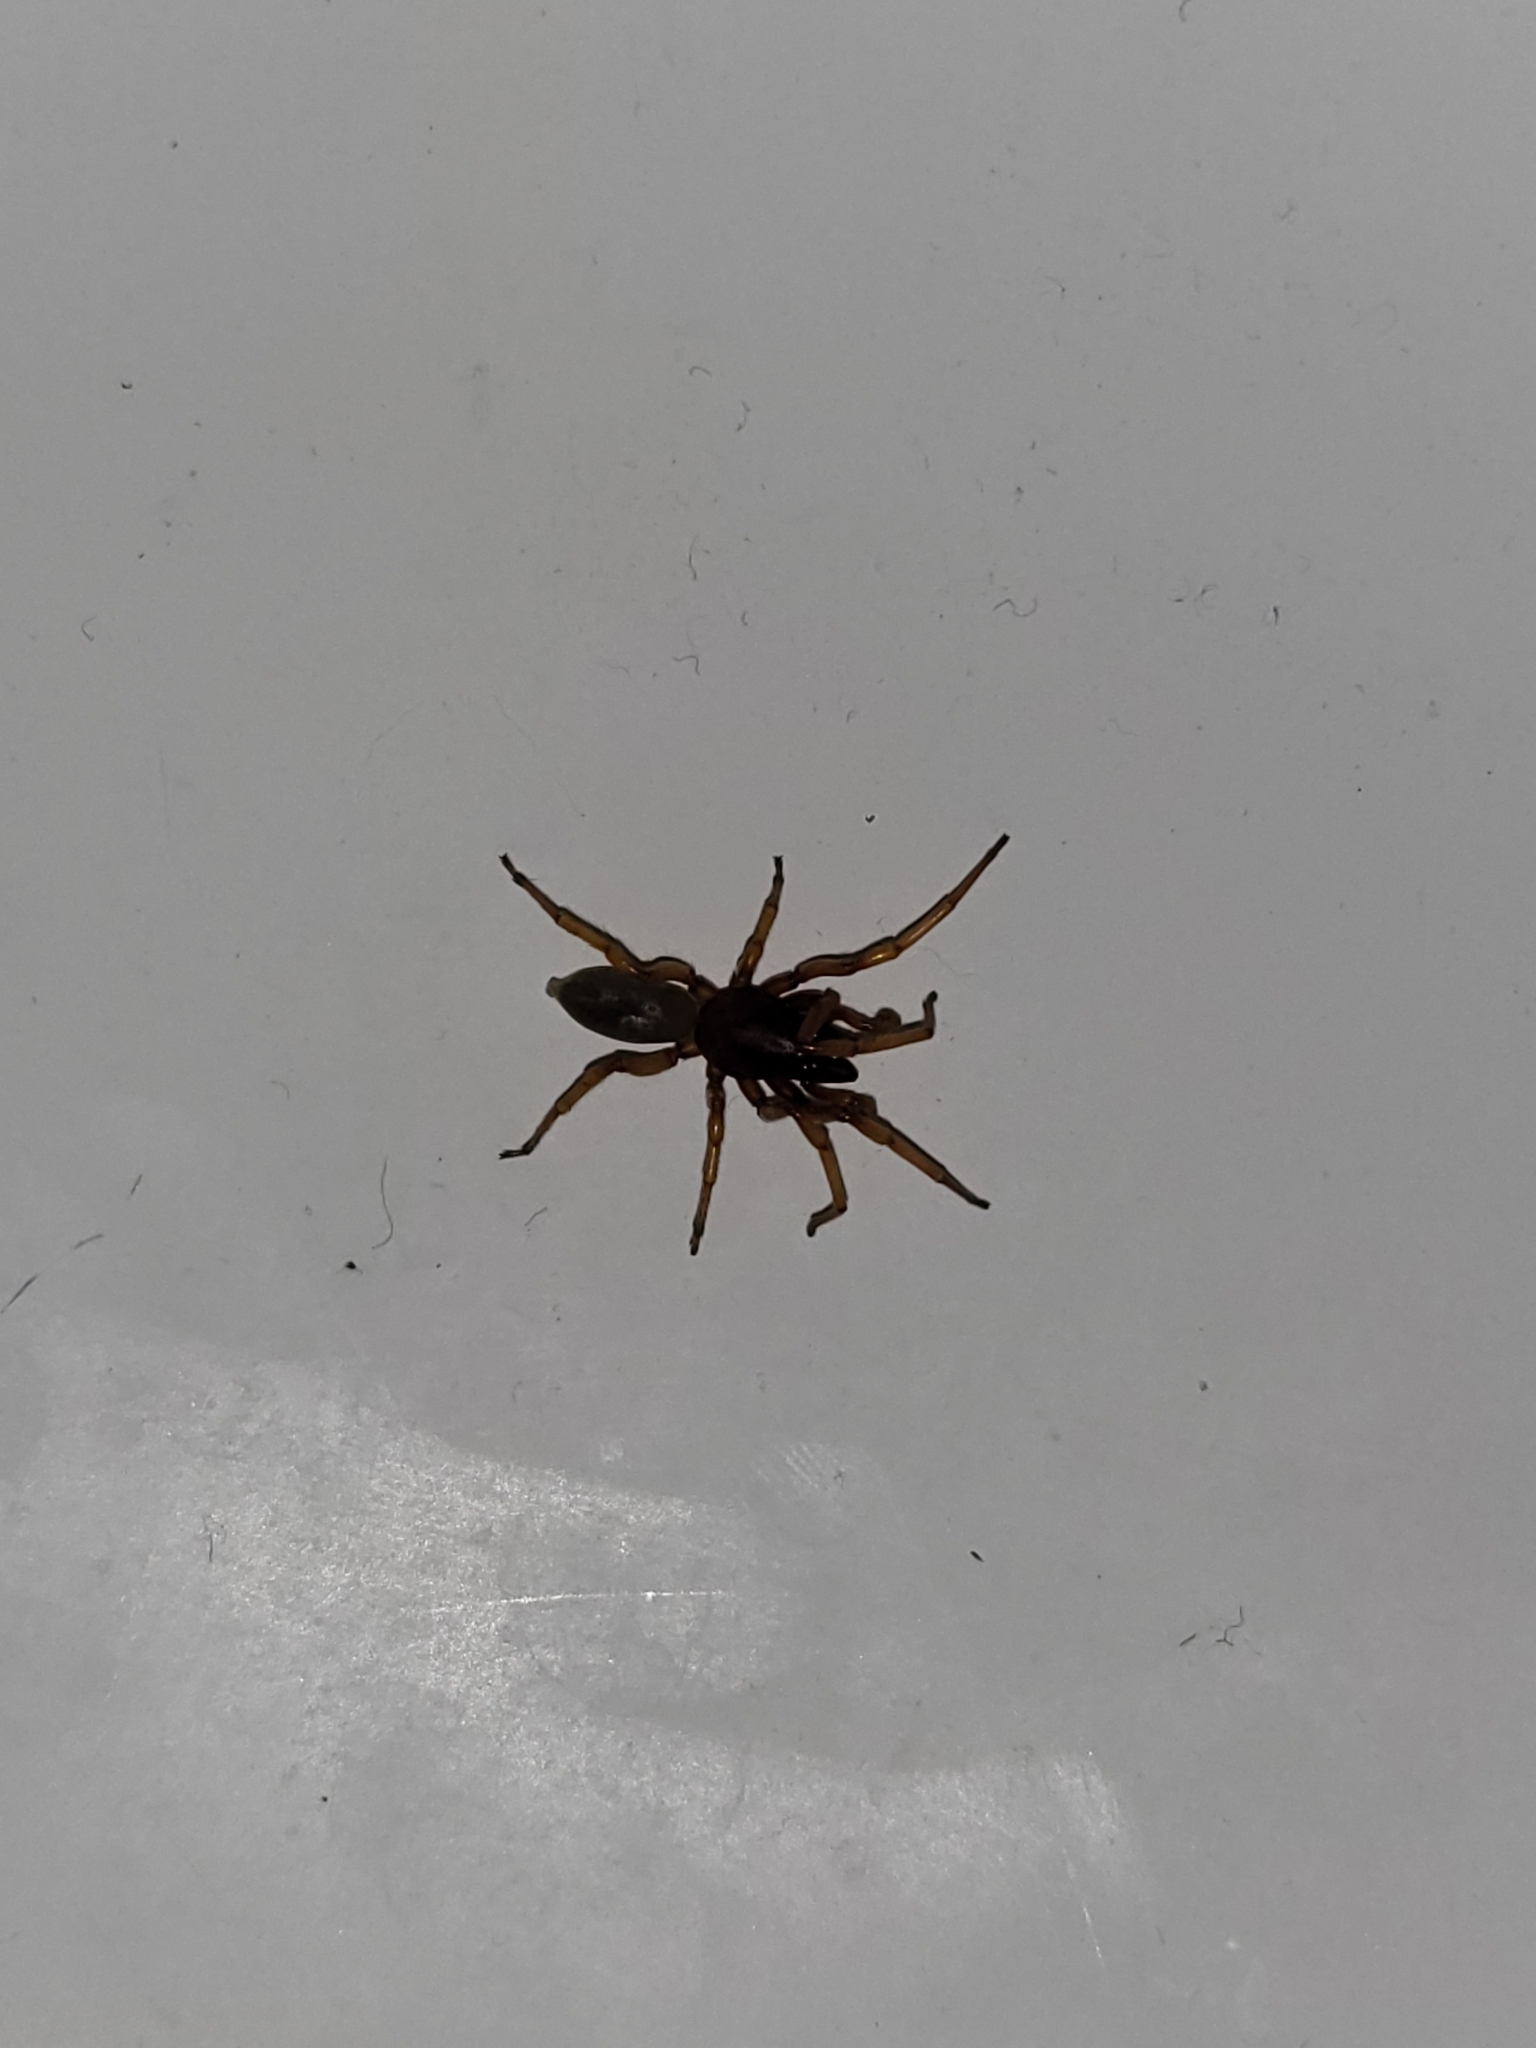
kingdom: Animalia
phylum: Arthropoda
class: Arachnida
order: Araneae
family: Dysderidae
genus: Dysdera
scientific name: Dysdera crocata
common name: Woodlouse spider
